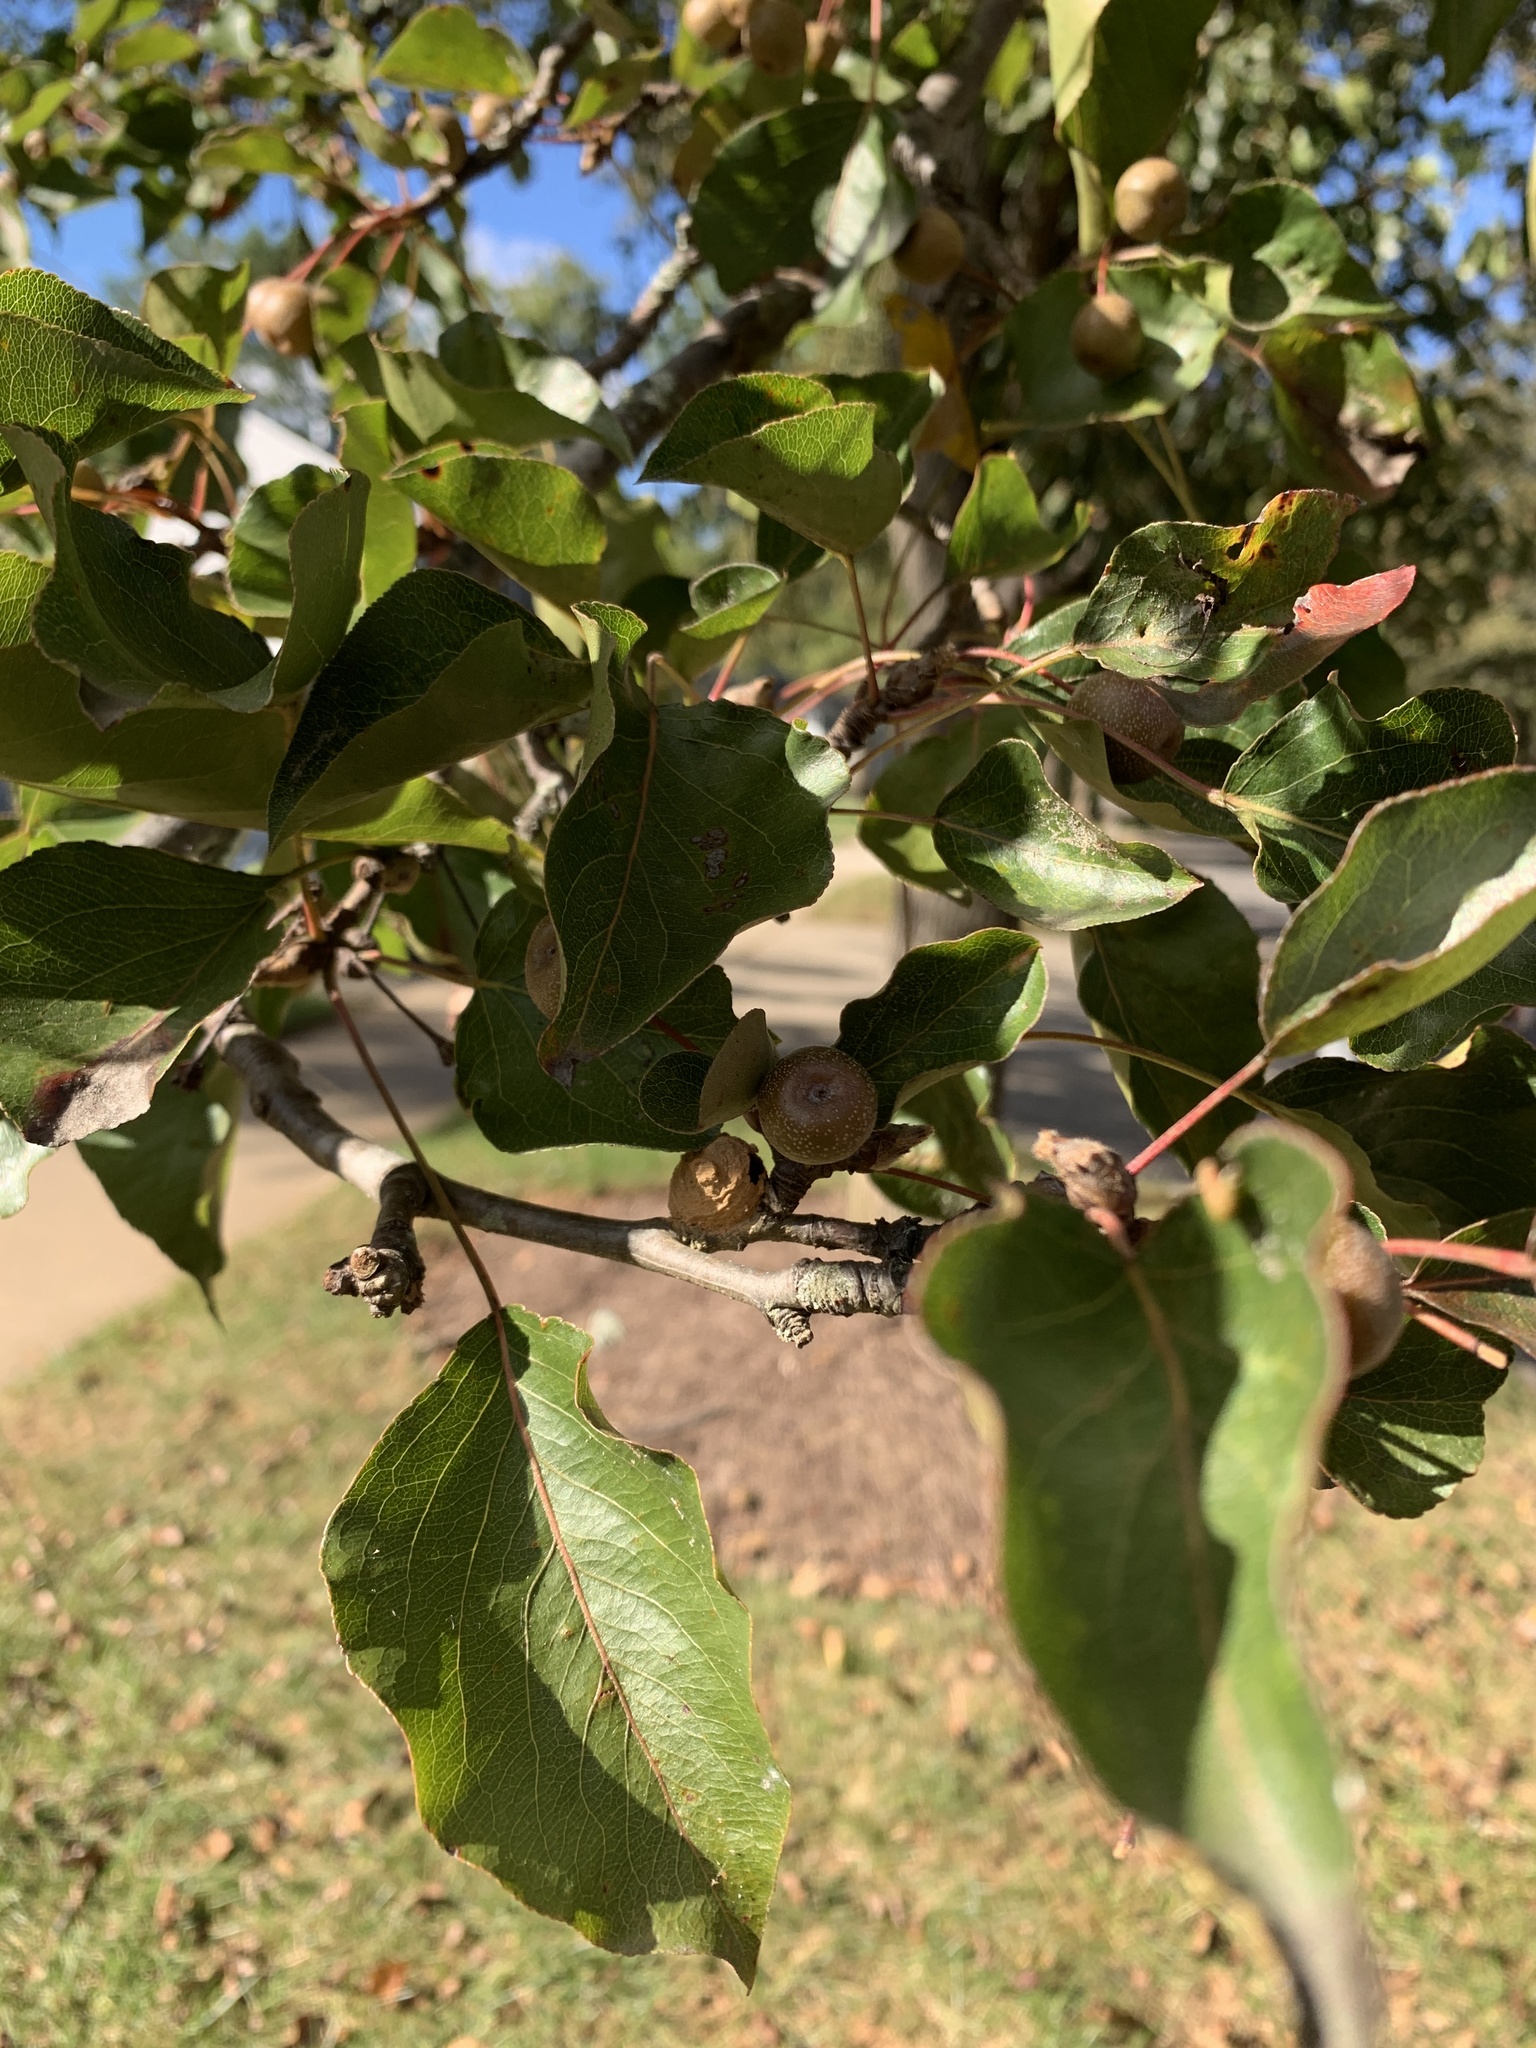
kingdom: Plantae
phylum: Tracheophyta
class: Magnoliopsida
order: Rosales
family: Rosaceae
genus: Pyrus
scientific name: Pyrus calleryana
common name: Callery pear
